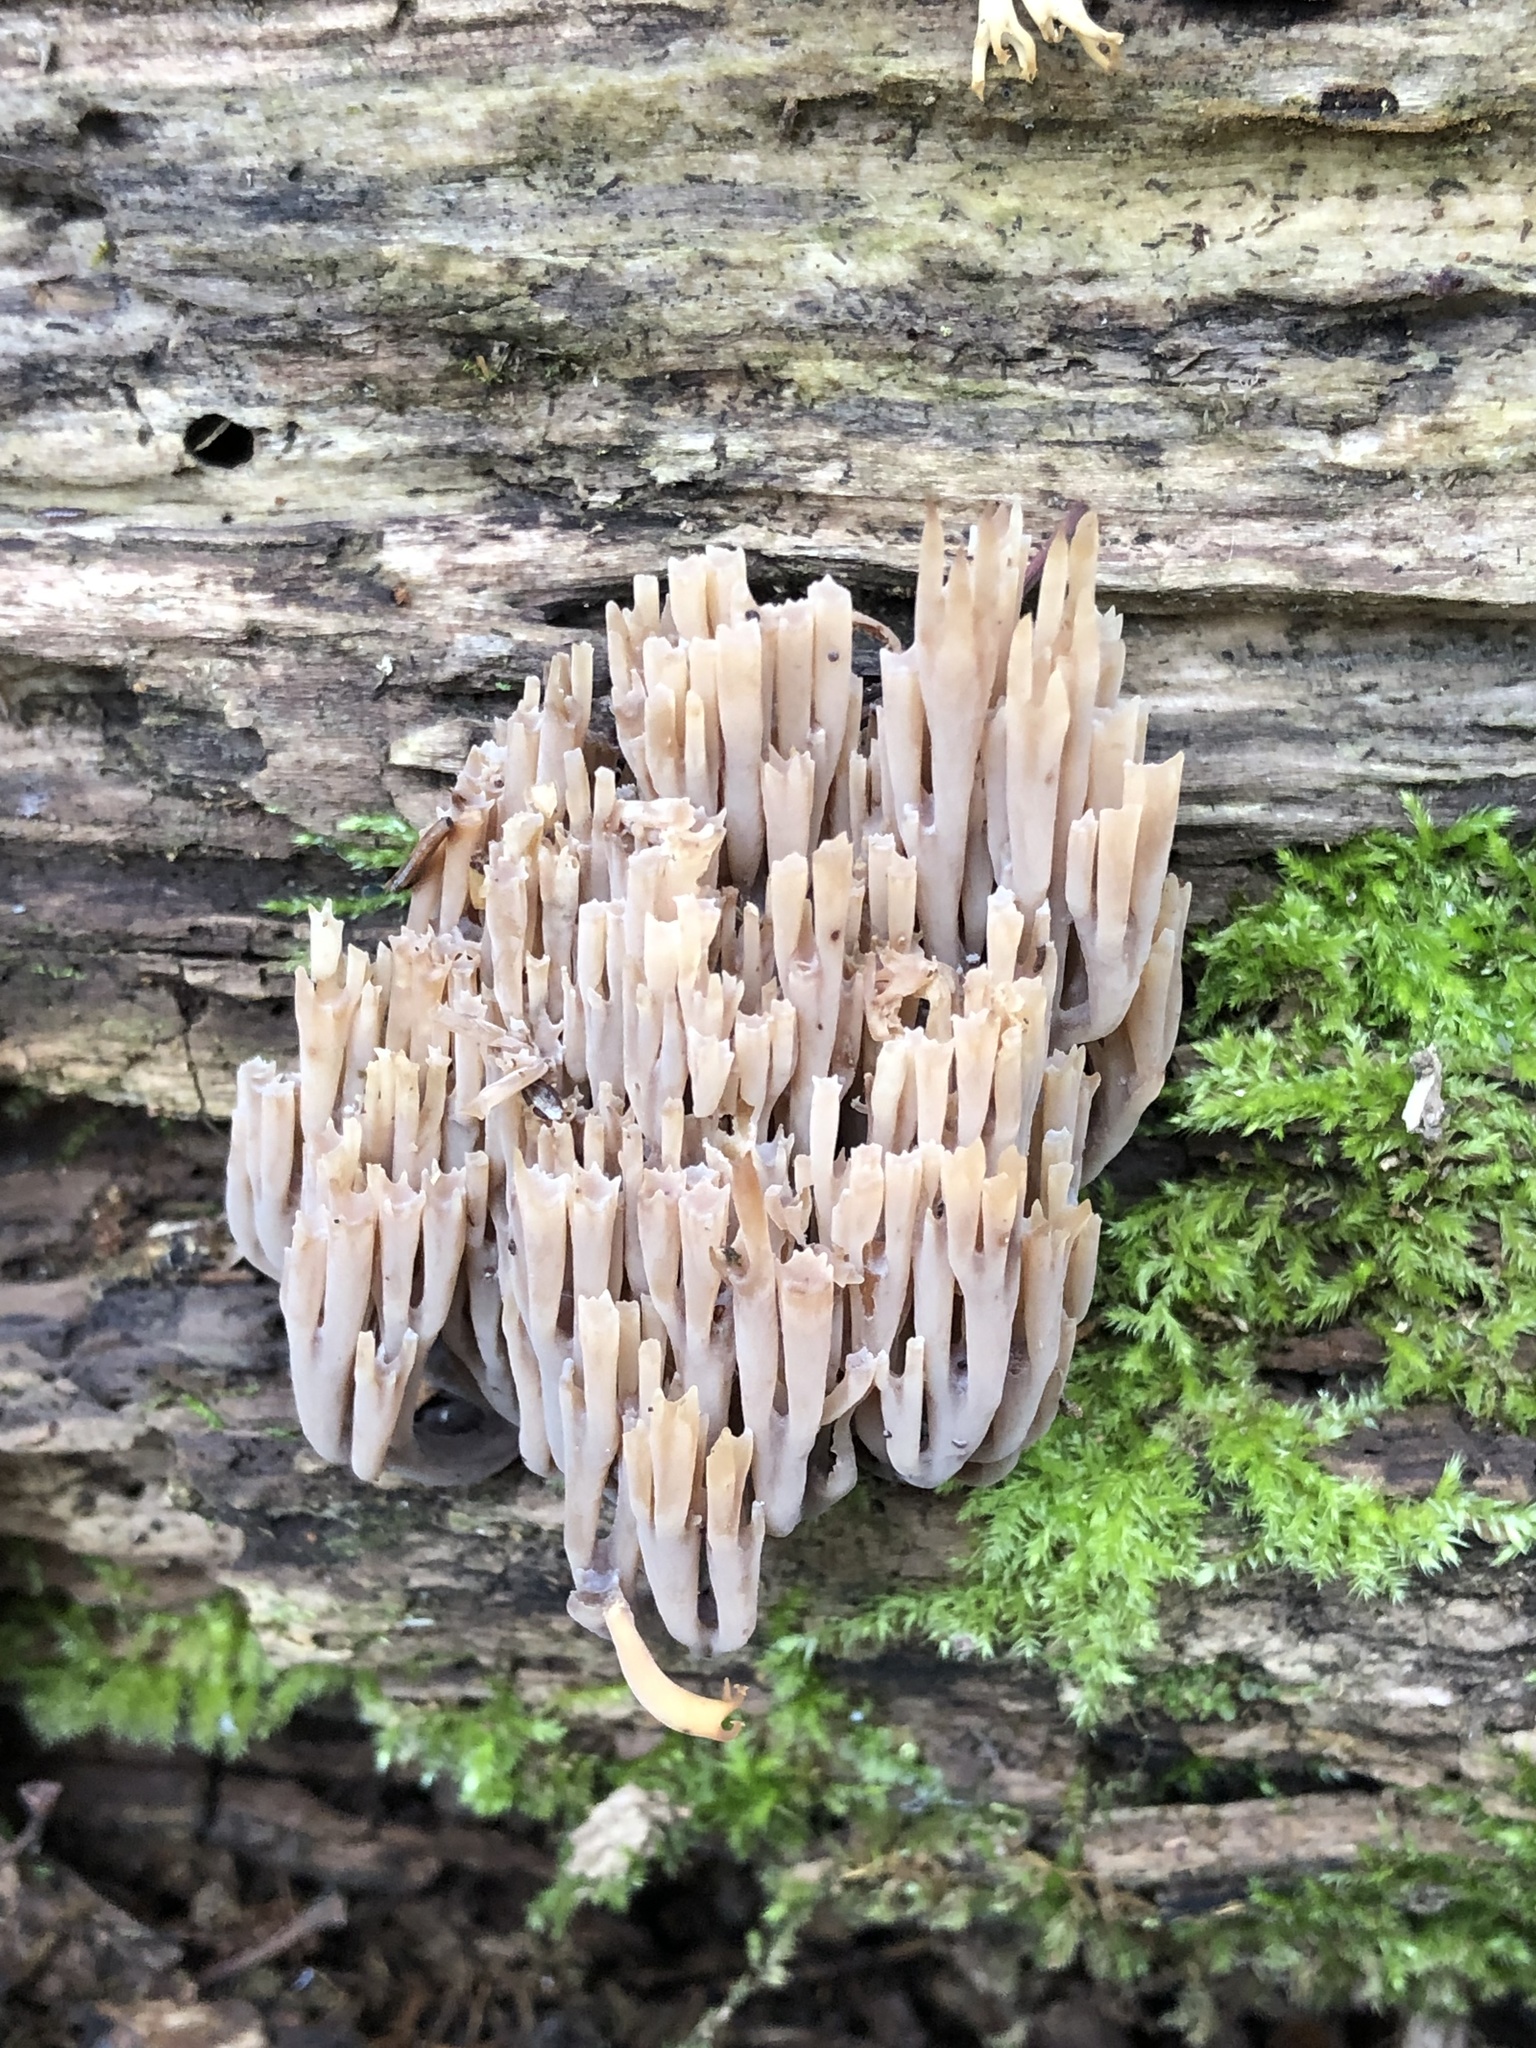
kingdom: Fungi
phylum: Basidiomycota
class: Agaricomycetes
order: Russulales
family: Auriscalpiaceae
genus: Artomyces
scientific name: Artomyces pyxidatus
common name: Crown-tipped coral fungus
